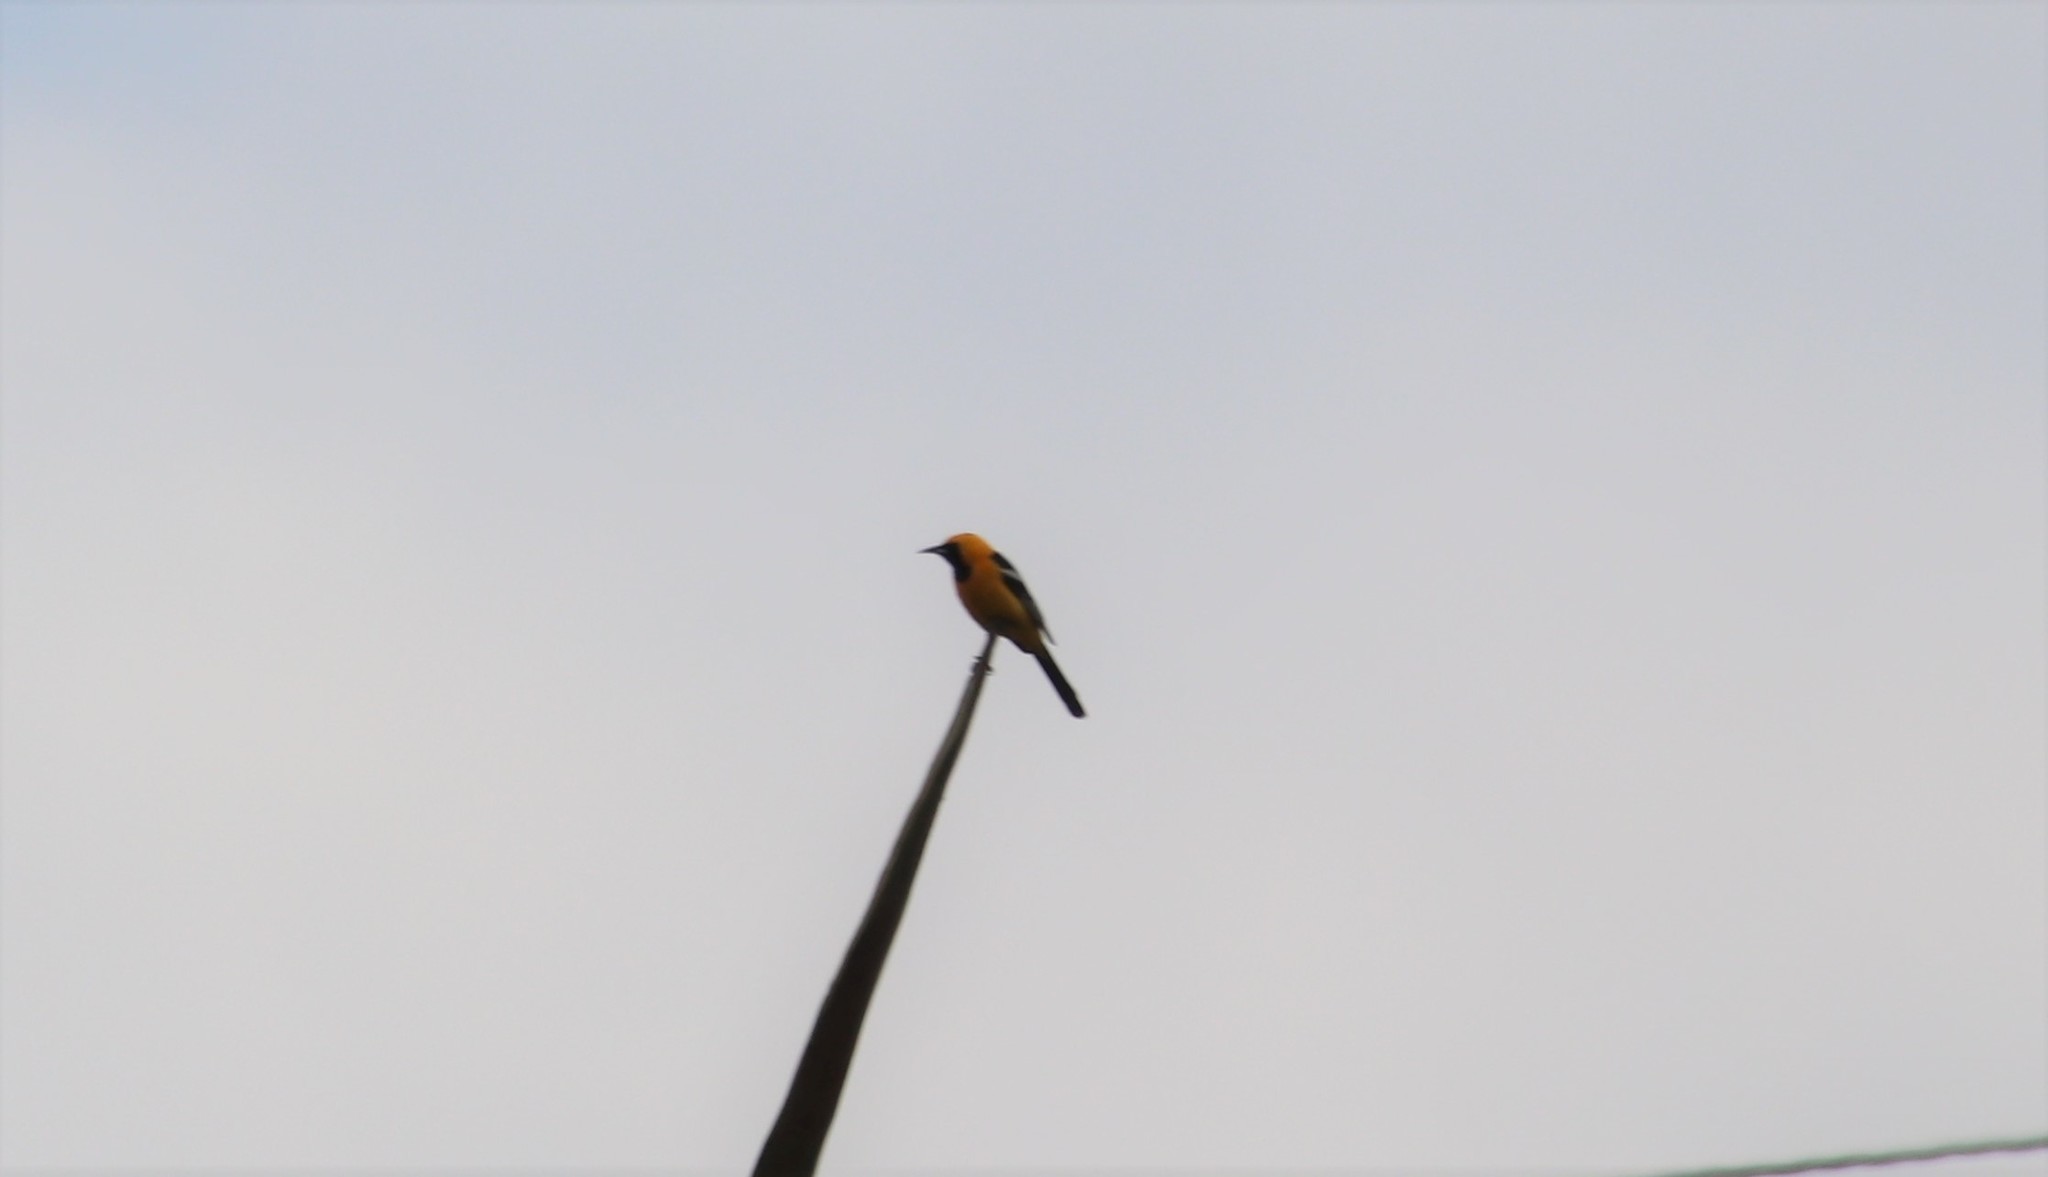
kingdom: Animalia
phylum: Chordata
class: Aves
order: Passeriformes
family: Icteridae
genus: Icterus
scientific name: Icterus cucullatus
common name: Hooded oriole
